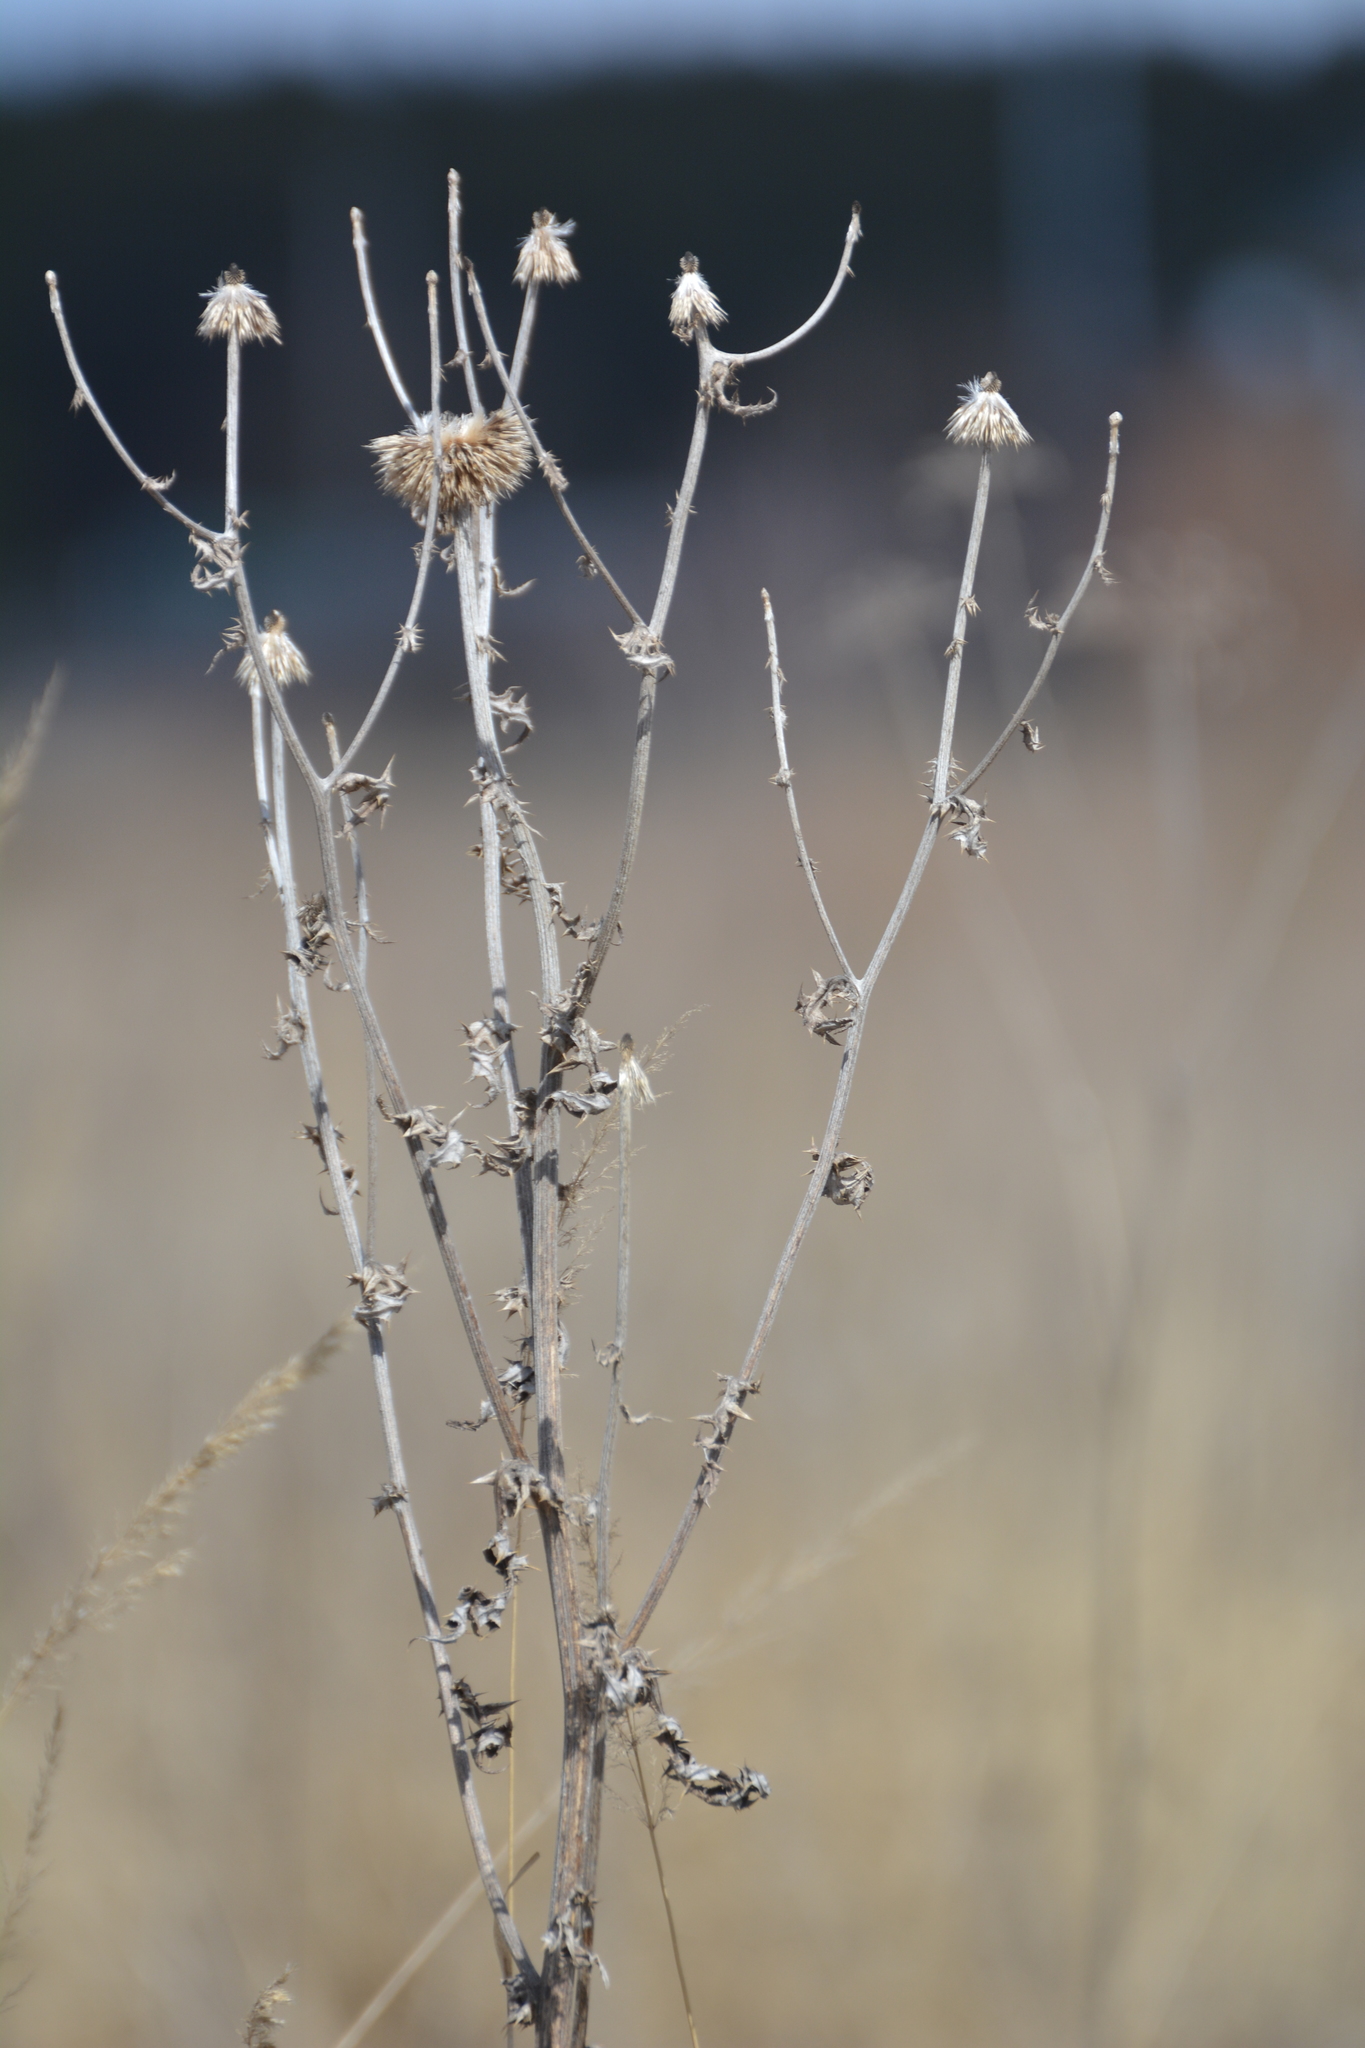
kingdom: Plantae
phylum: Tracheophyta
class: Magnoliopsida
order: Asterales
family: Asteraceae
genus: Echinops
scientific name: Echinops sphaerocephalus
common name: Glandular globe-thistle
